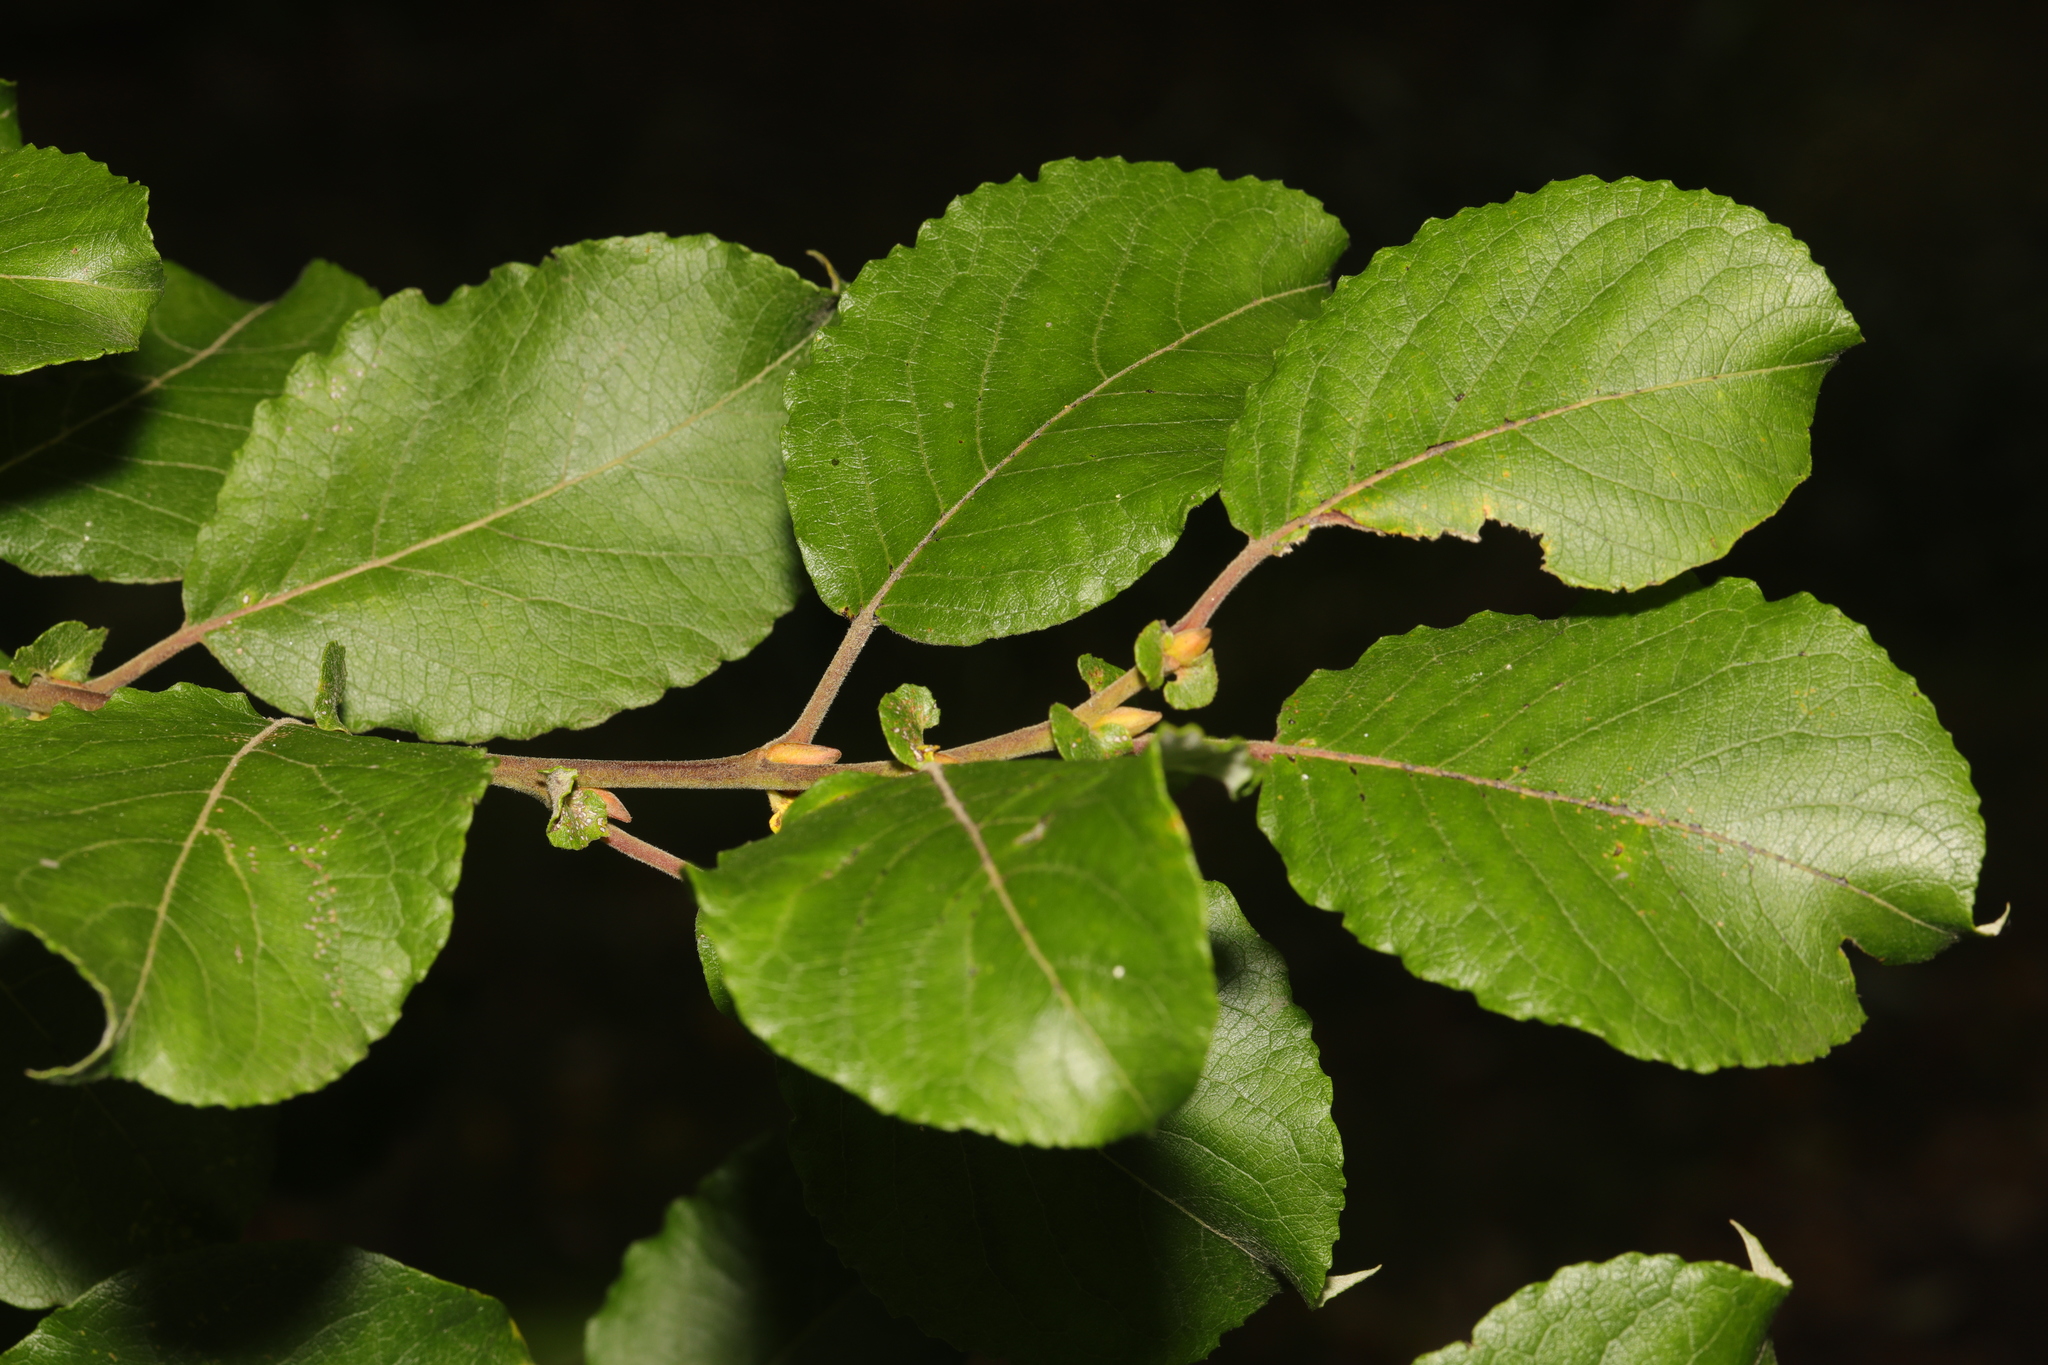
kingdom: Plantae
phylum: Tracheophyta
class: Magnoliopsida
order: Malpighiales
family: Salicaceae
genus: Salix
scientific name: Salix caprea
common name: Goat willow
